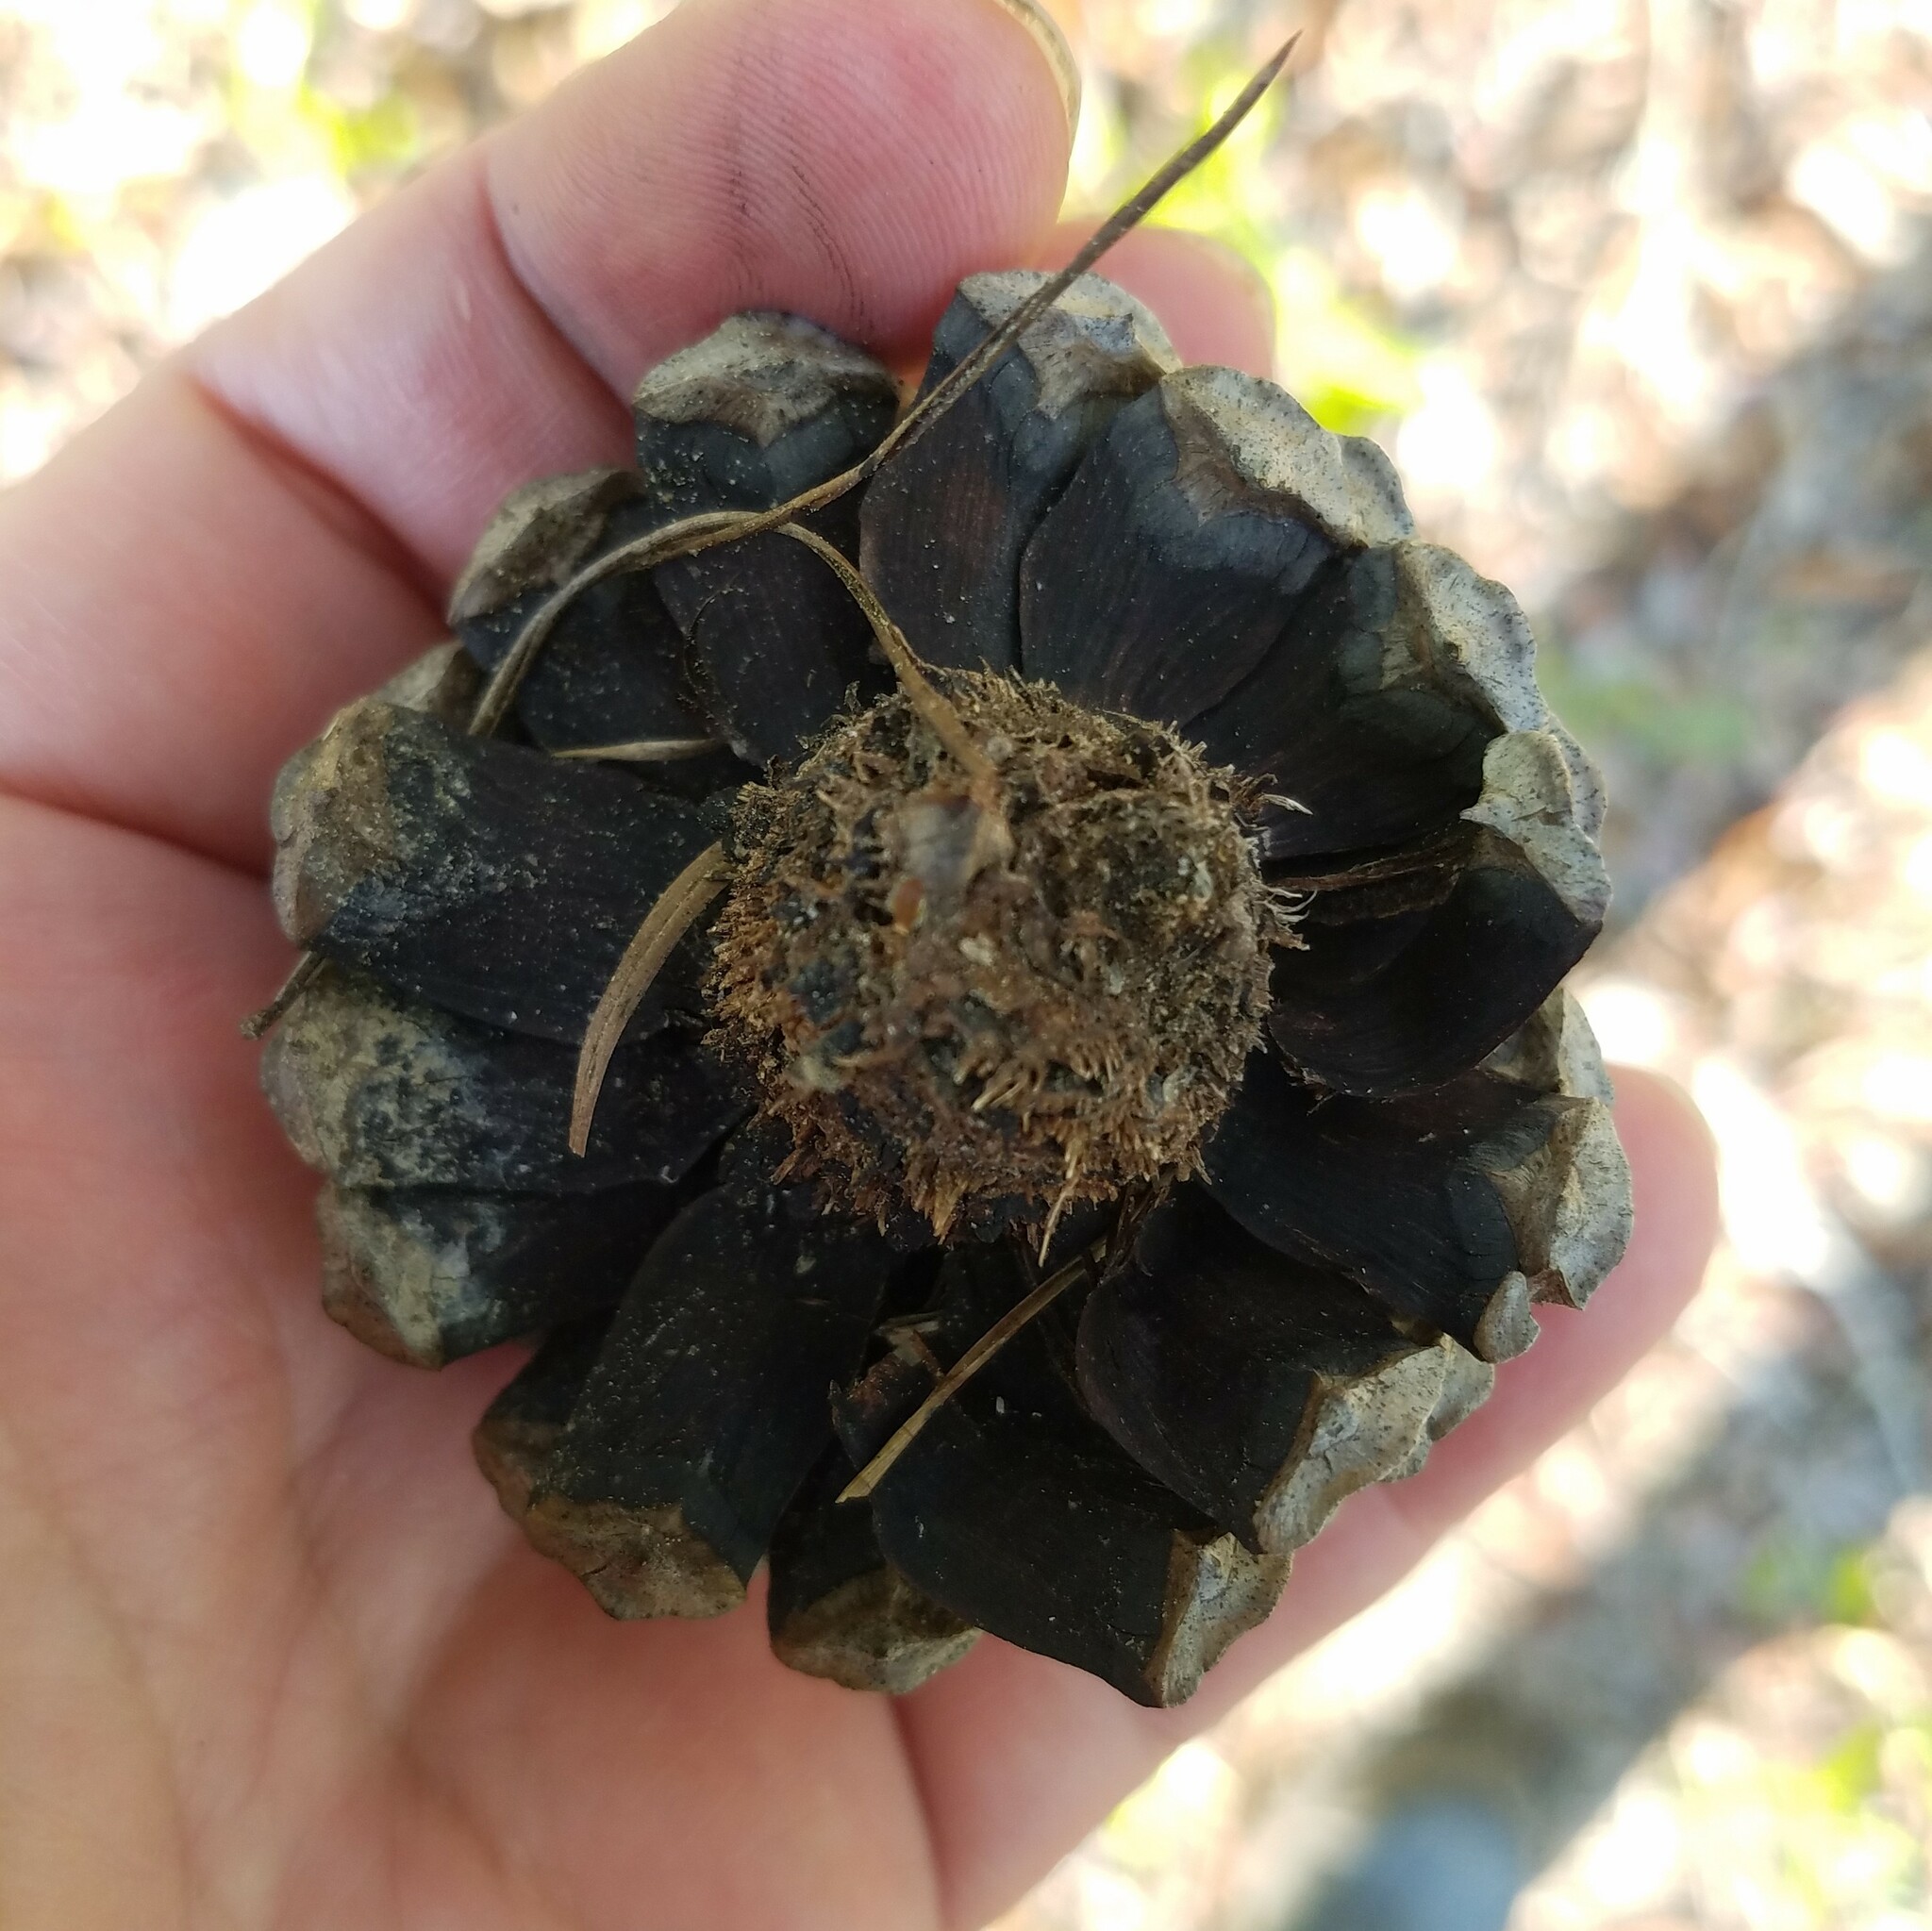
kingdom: Plantae
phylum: Tracheophyta
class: Pinopsida
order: Pinales
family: Pinaceae
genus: Pinus
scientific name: Pinus clausa
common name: Sand pine
